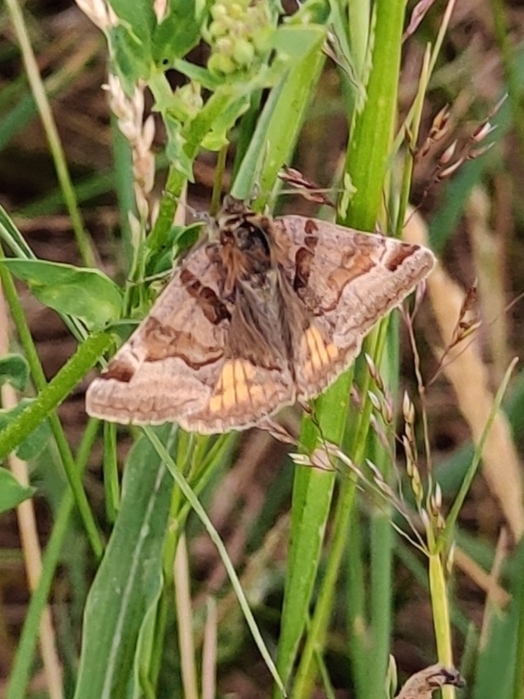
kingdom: Animalia
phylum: Arthropoda
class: Insecta
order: Lepidoptera
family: Erebidae
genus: Euclidia
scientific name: Euclidia glyphica
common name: Burnet companion
